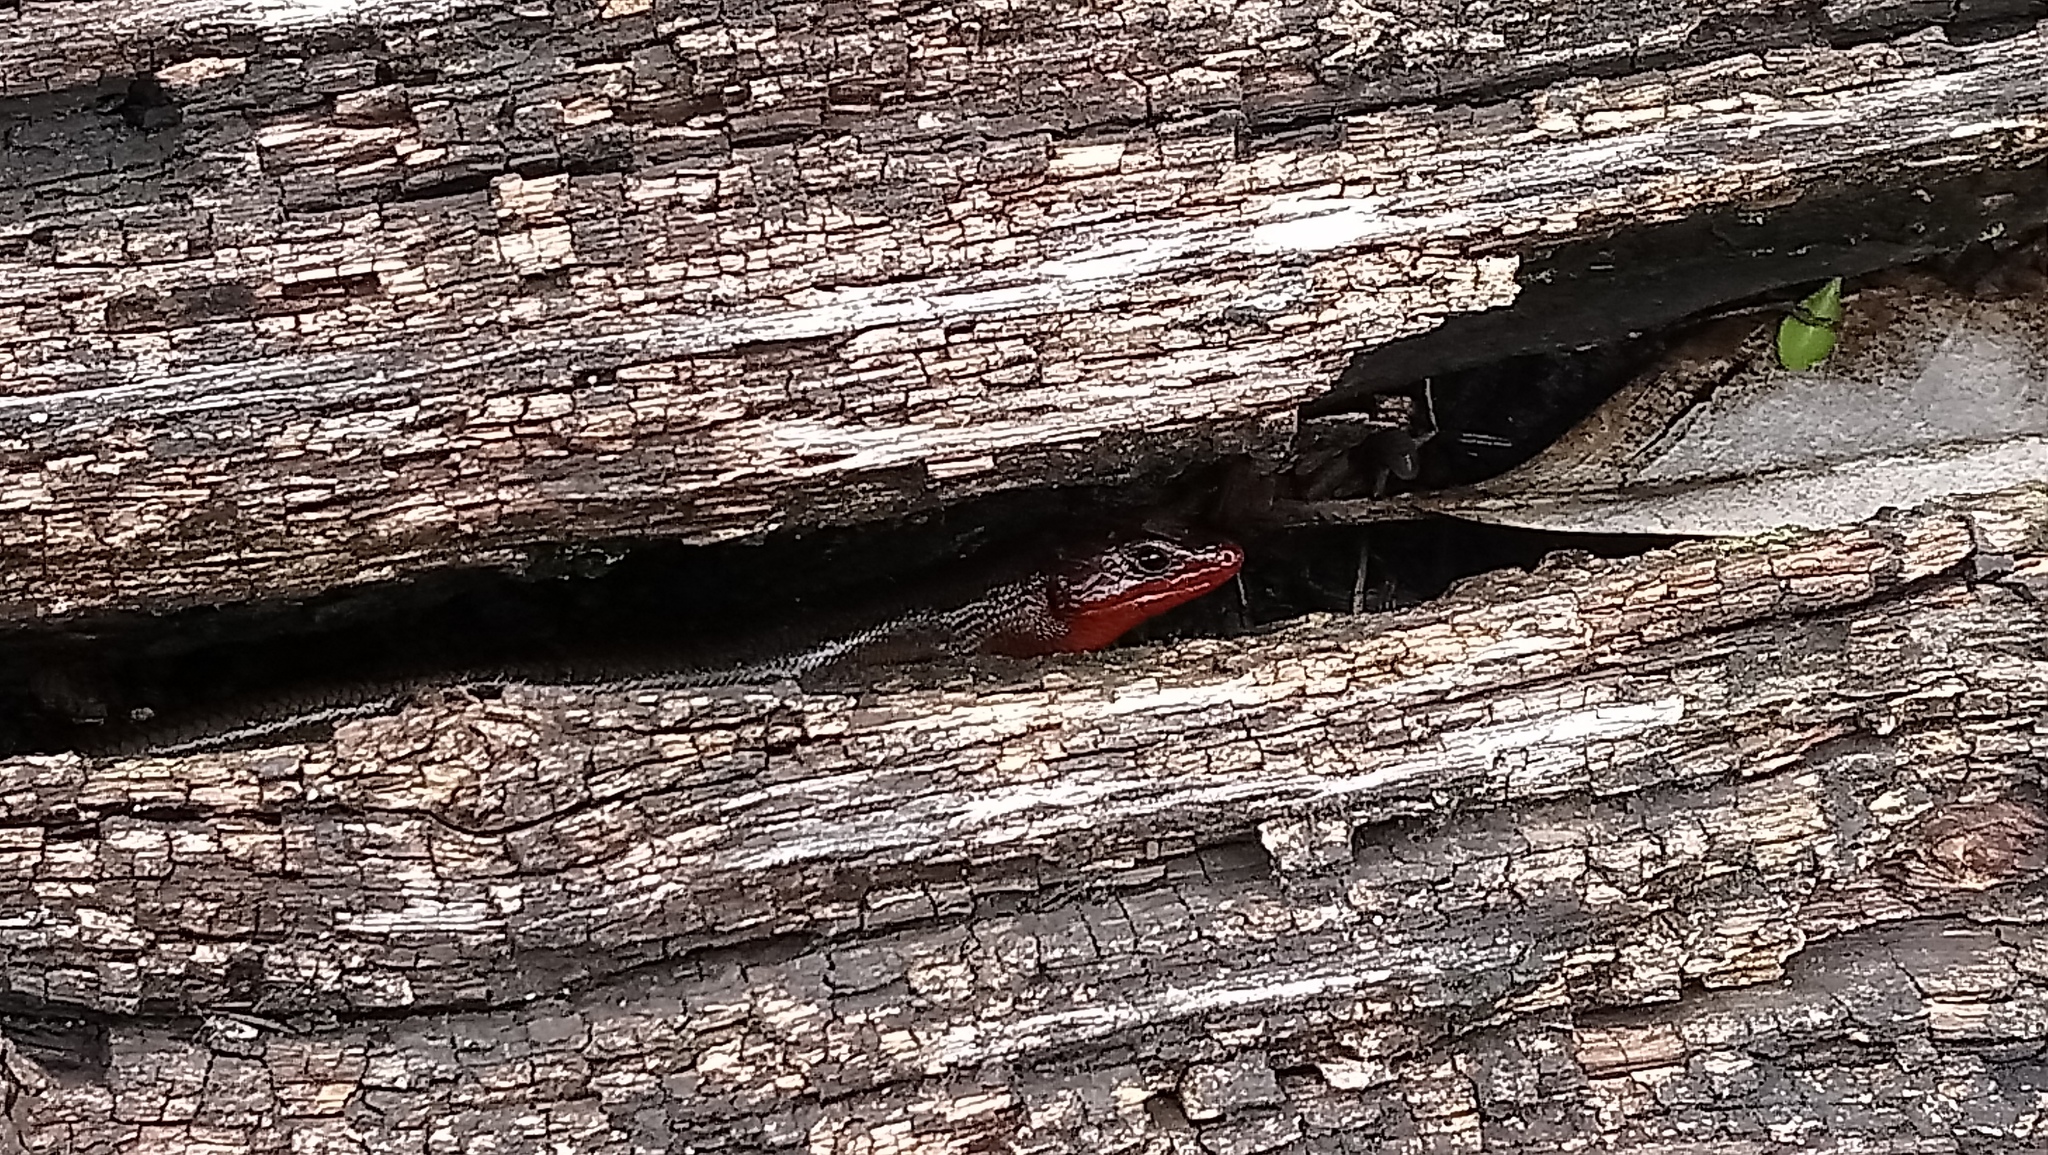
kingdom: Animalia
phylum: Chordata
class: Squamata
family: Scincidae
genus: Plestiodon
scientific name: Plestiodon fasciatus
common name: Five-lined skink
